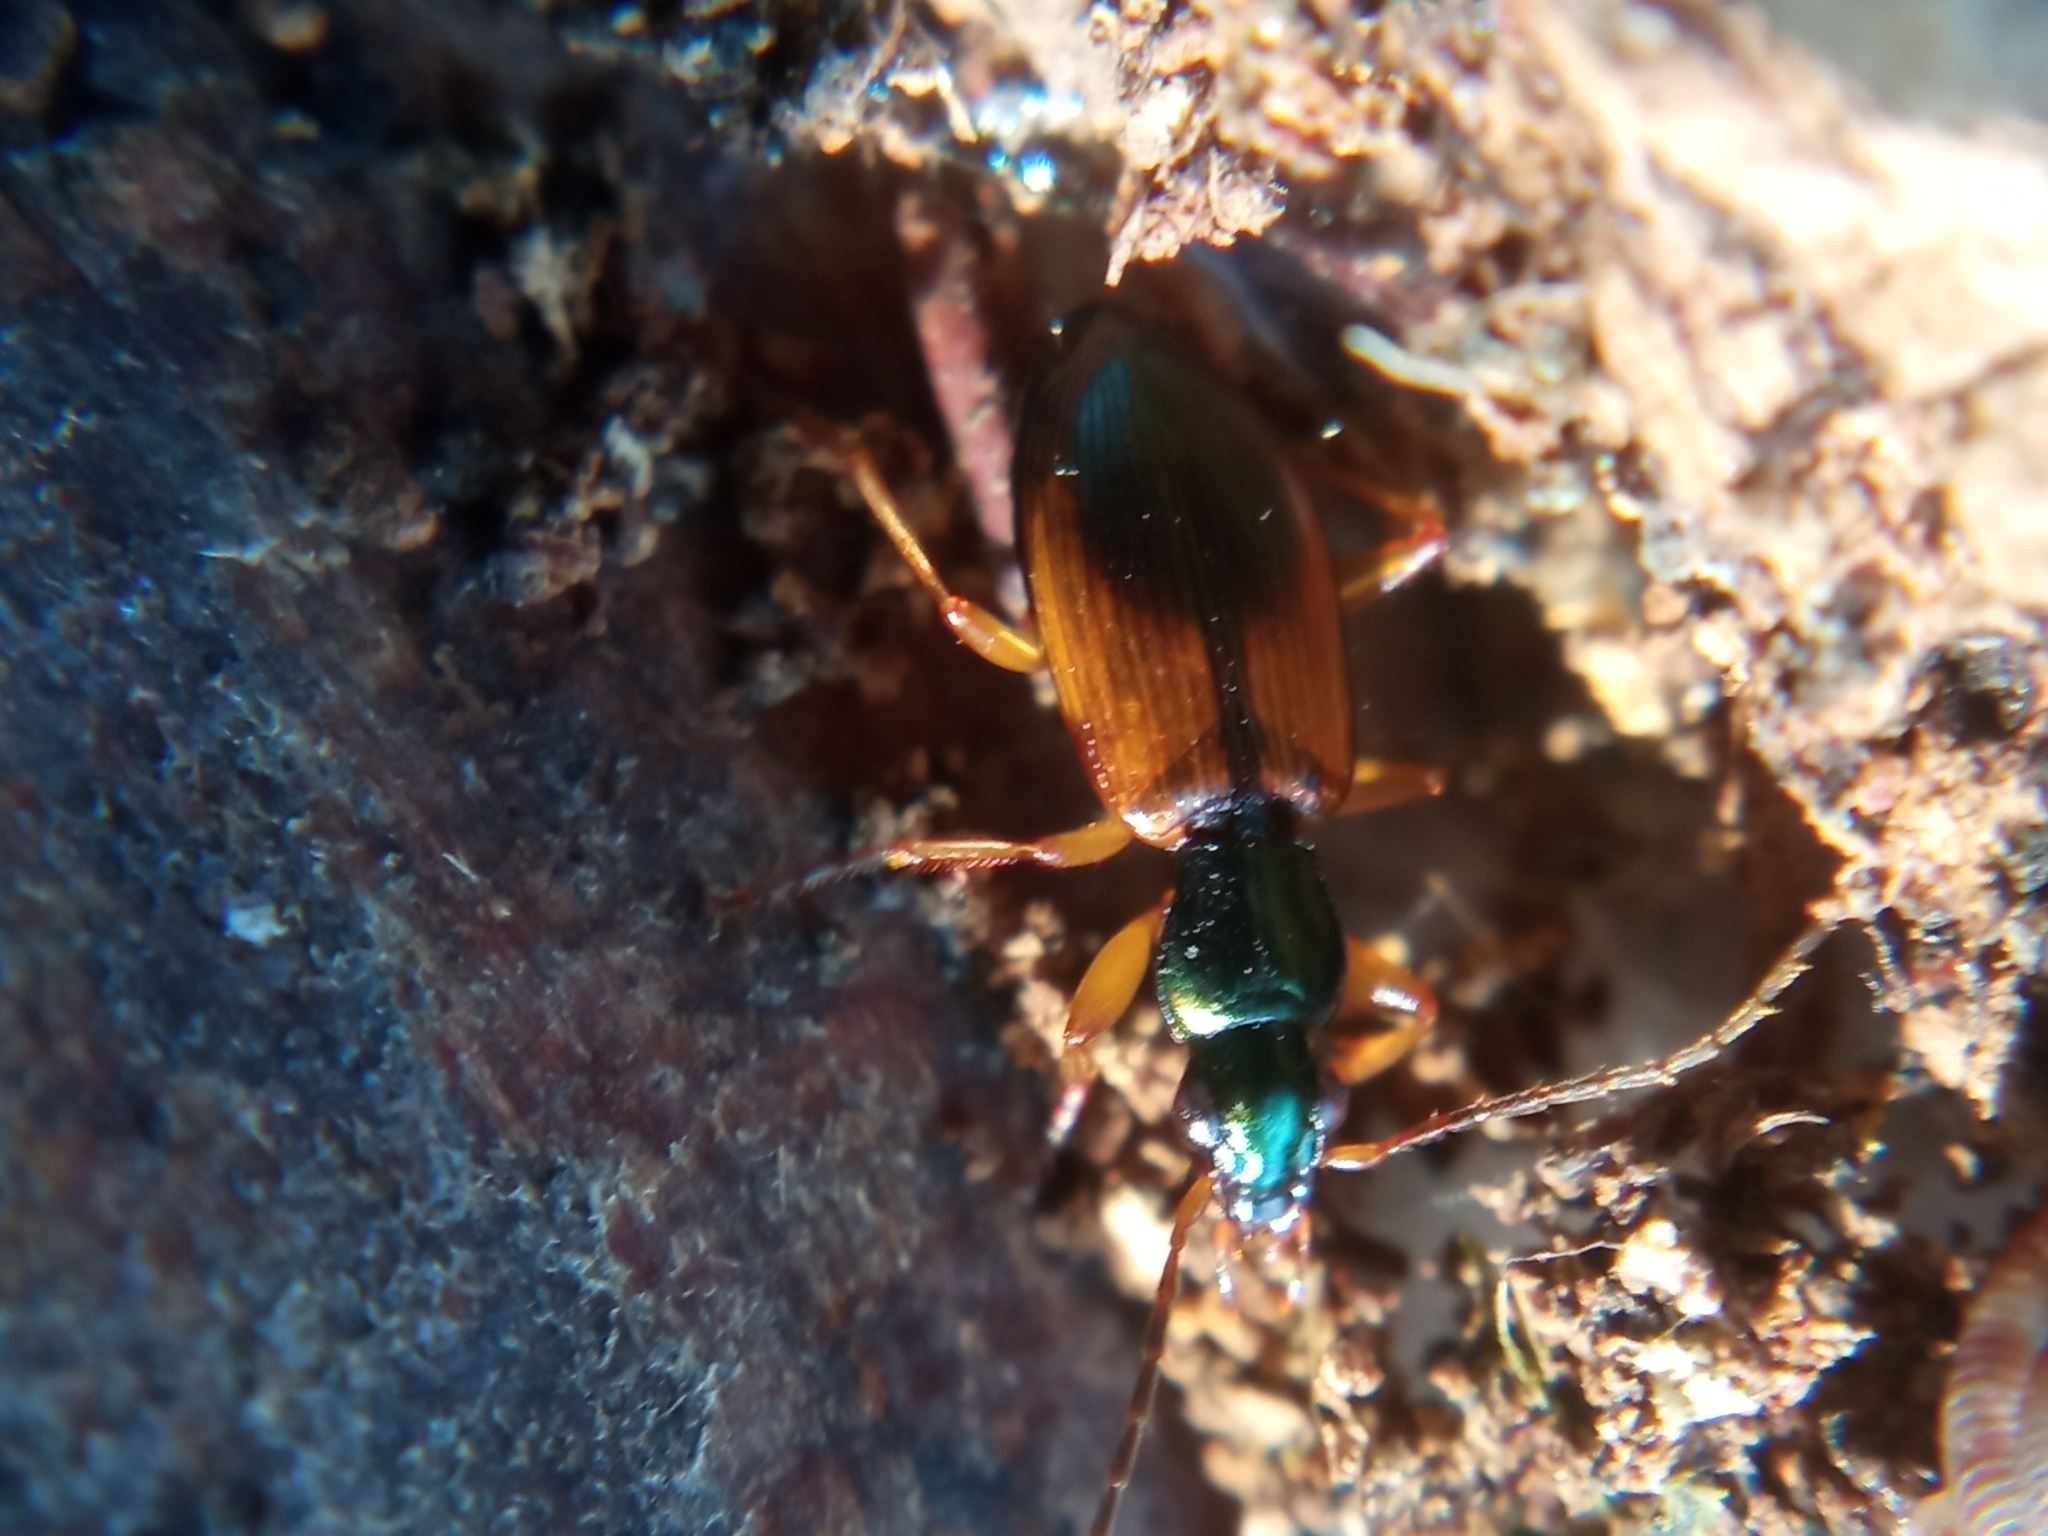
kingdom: Animalia
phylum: Arthropoda
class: Insecta
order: Coleoptera
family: Carabidae
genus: Anchomenus
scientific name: Anchomenus dorsalis
